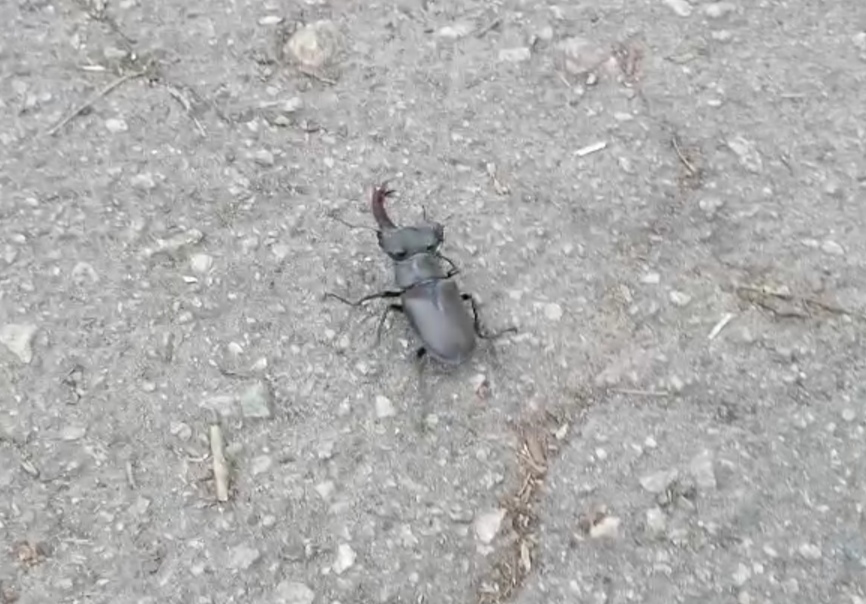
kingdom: Animalia
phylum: Arthropoda
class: Insecta
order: Coleoptera
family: Lucanidae
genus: Lucanus
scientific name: Lucanus cervus
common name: Stag beetle
